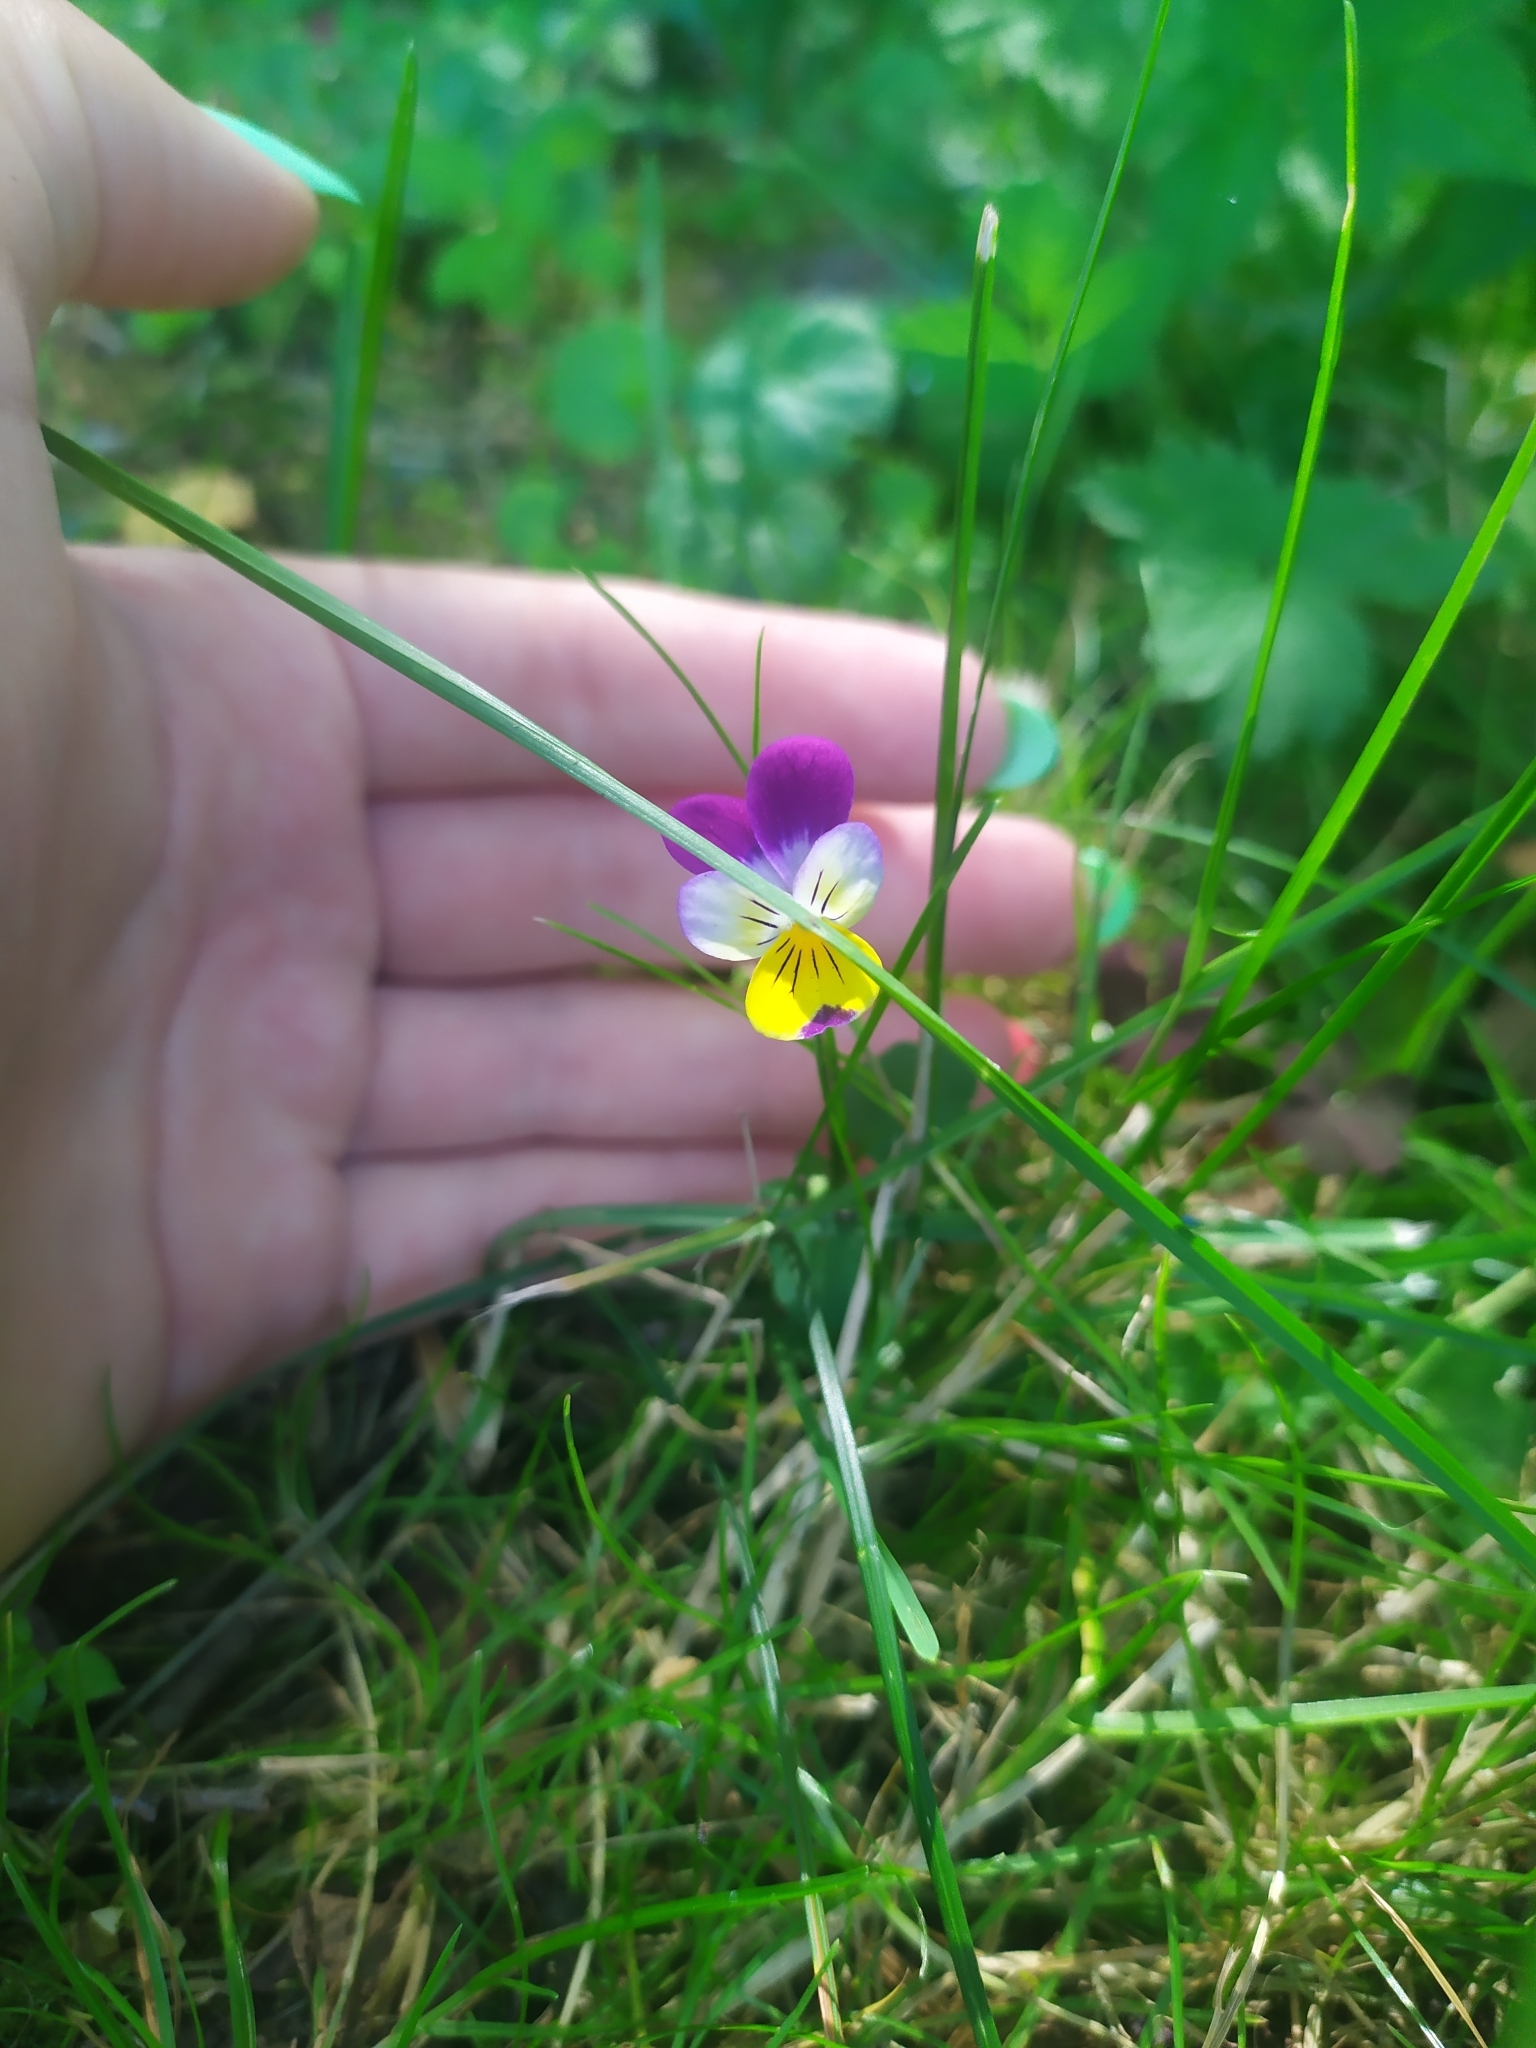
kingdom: Plantae
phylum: Tracheophyta
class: Magnoliopsida
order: Malpighiales
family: Violaceae
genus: Viola
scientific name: Viola tricolor
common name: Pansy
